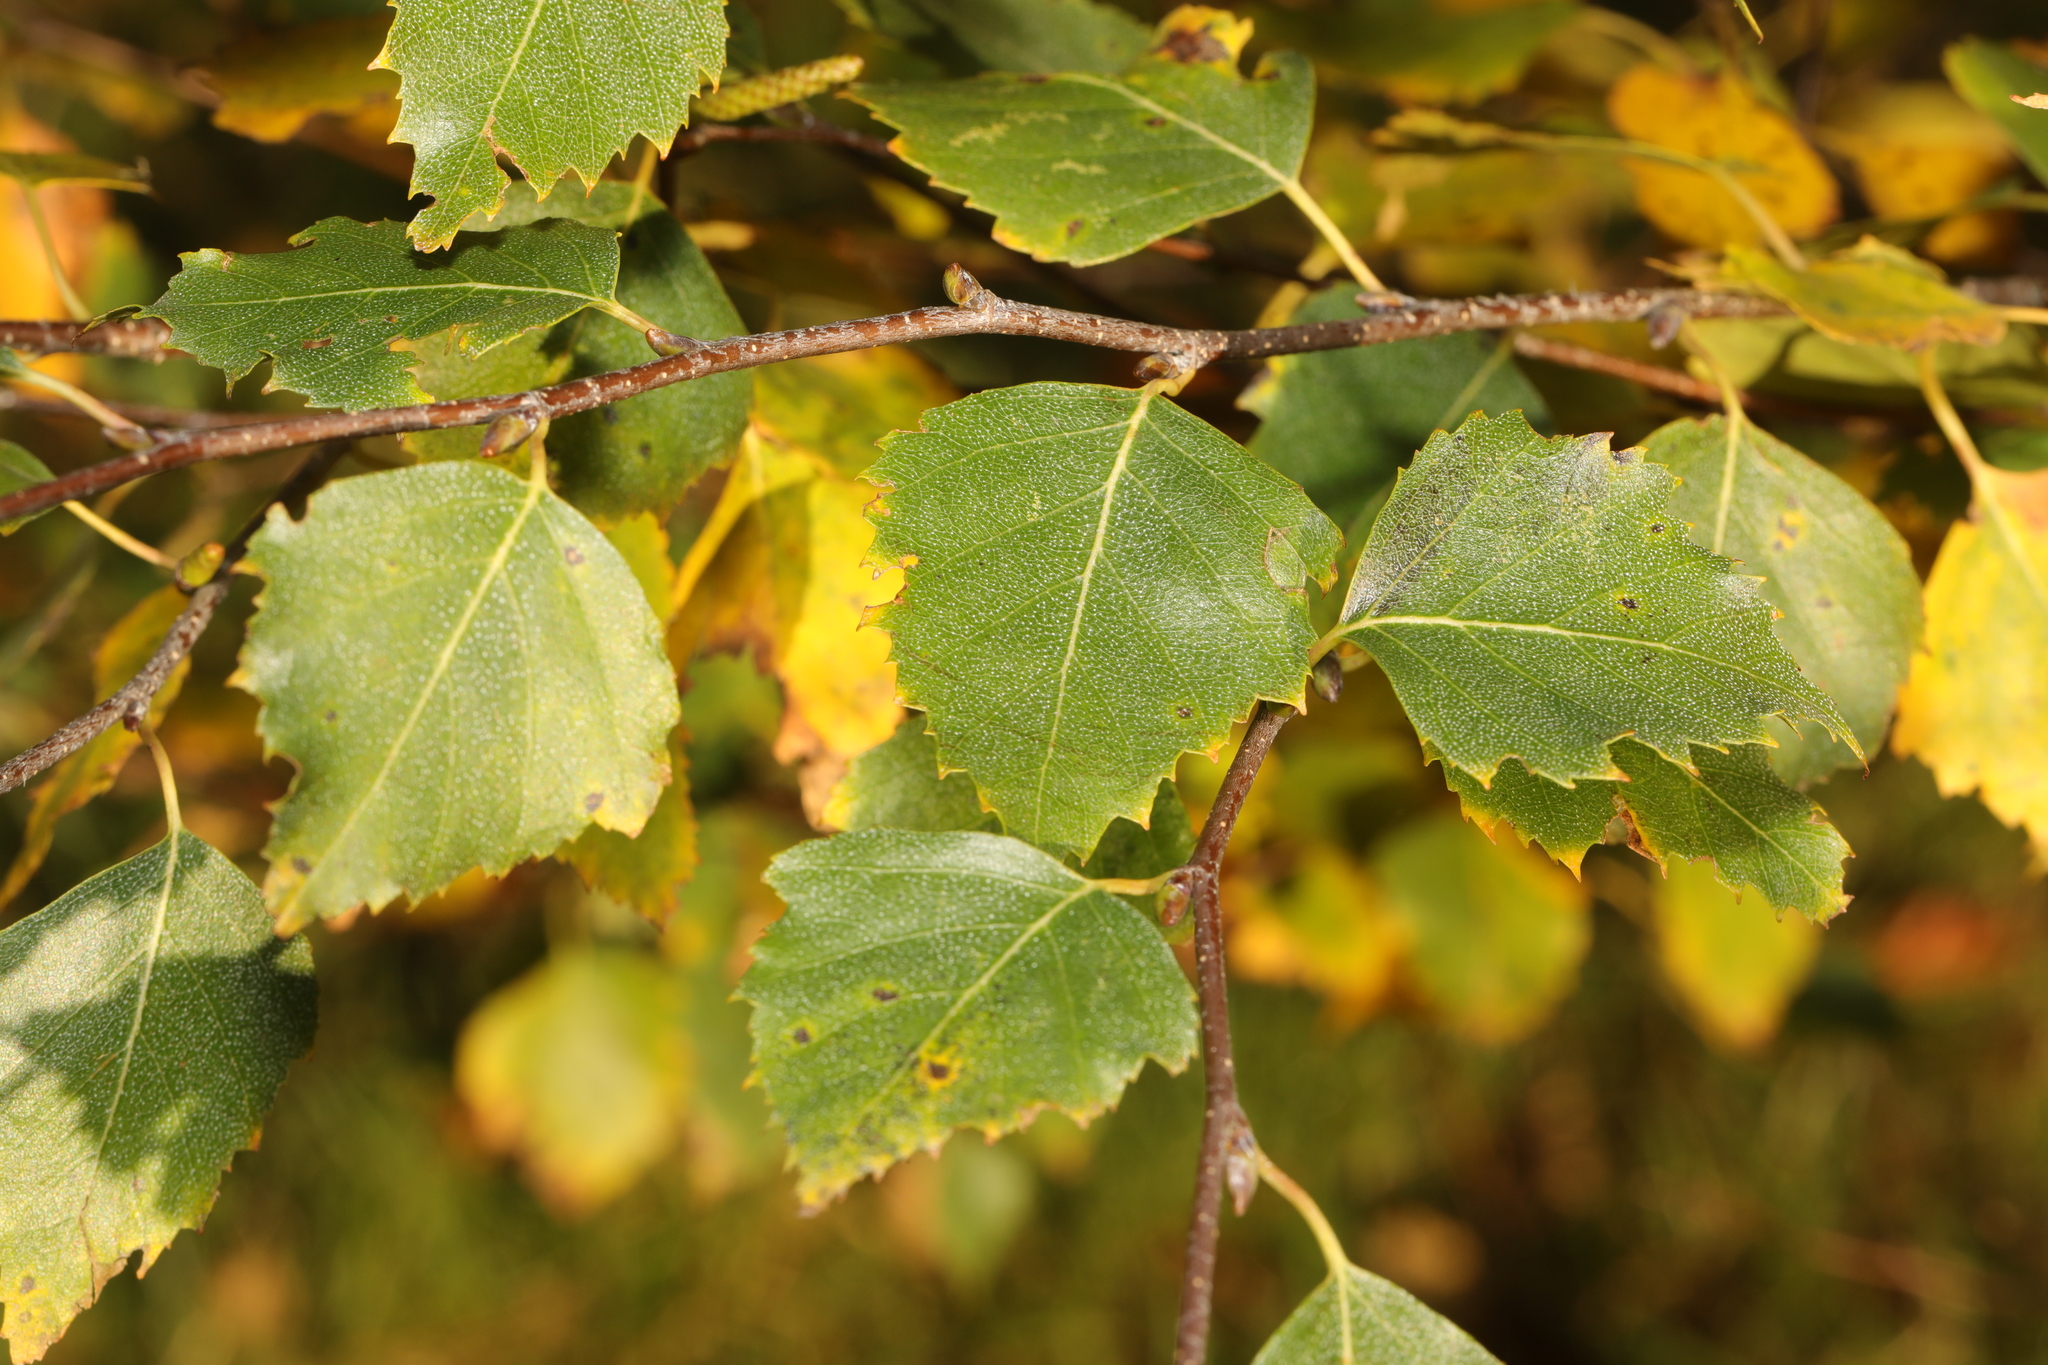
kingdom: Plantae
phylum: Tracheophyta
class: Magnoliopsida
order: Fagales
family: Betulaceae
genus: Betula
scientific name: Betula pendula
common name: Silver birch
